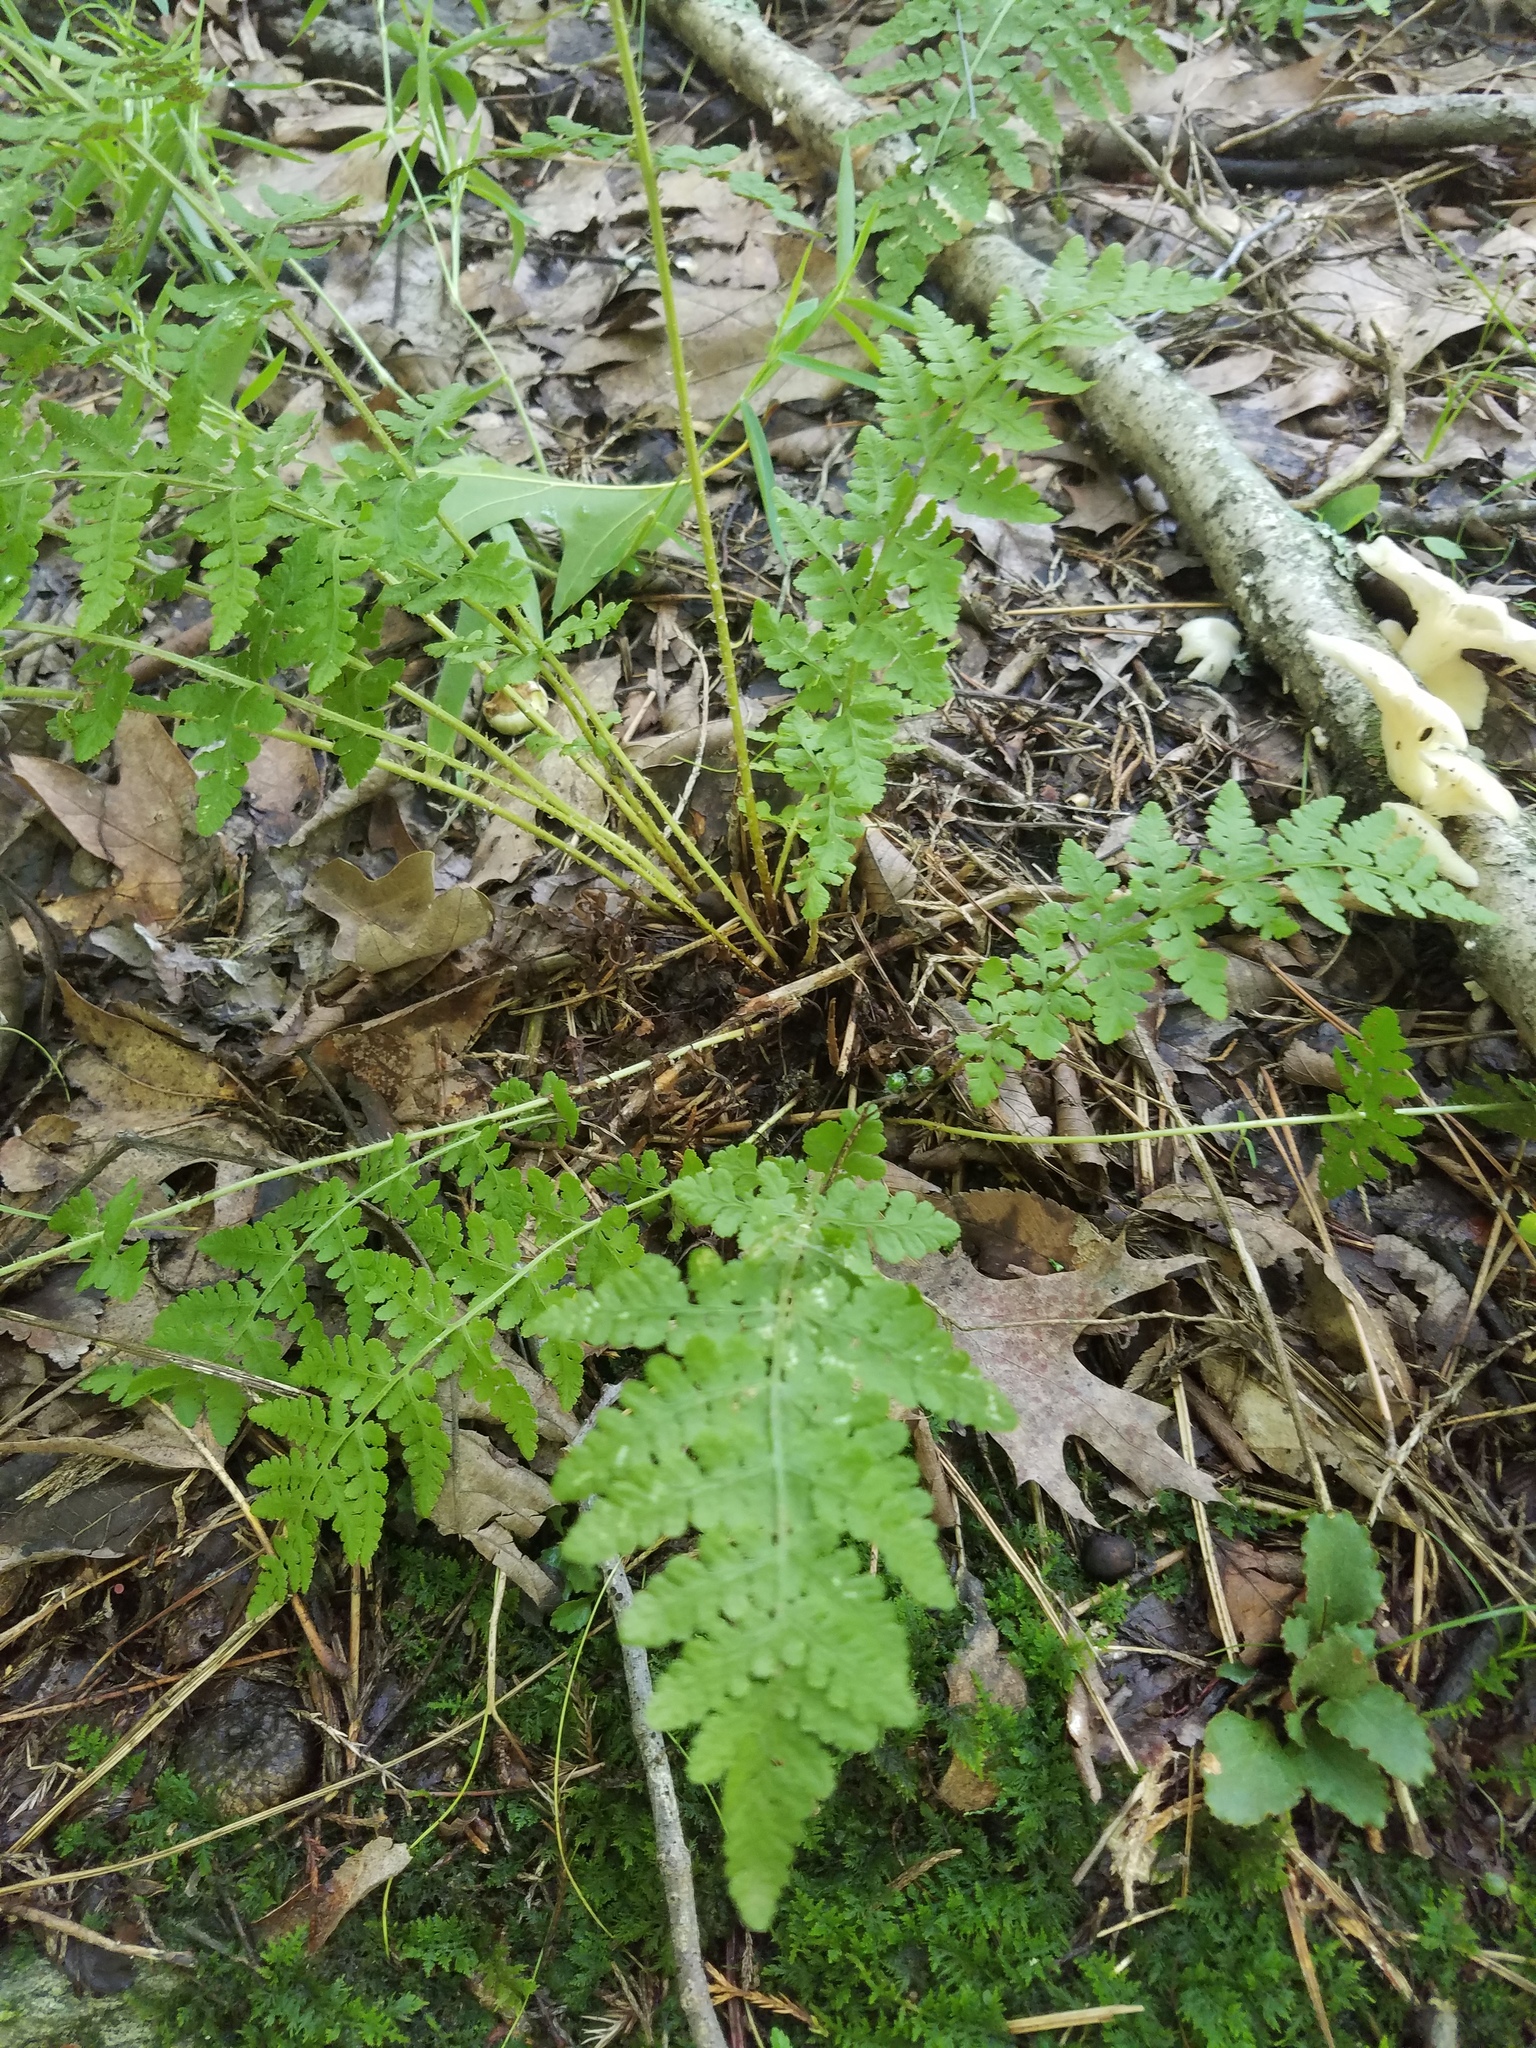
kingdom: Plantae
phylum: Tracheophyta
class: Polypodiopsida
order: Polypodiales
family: Woodsiaceae
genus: Physematium
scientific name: Physematium obtusum
